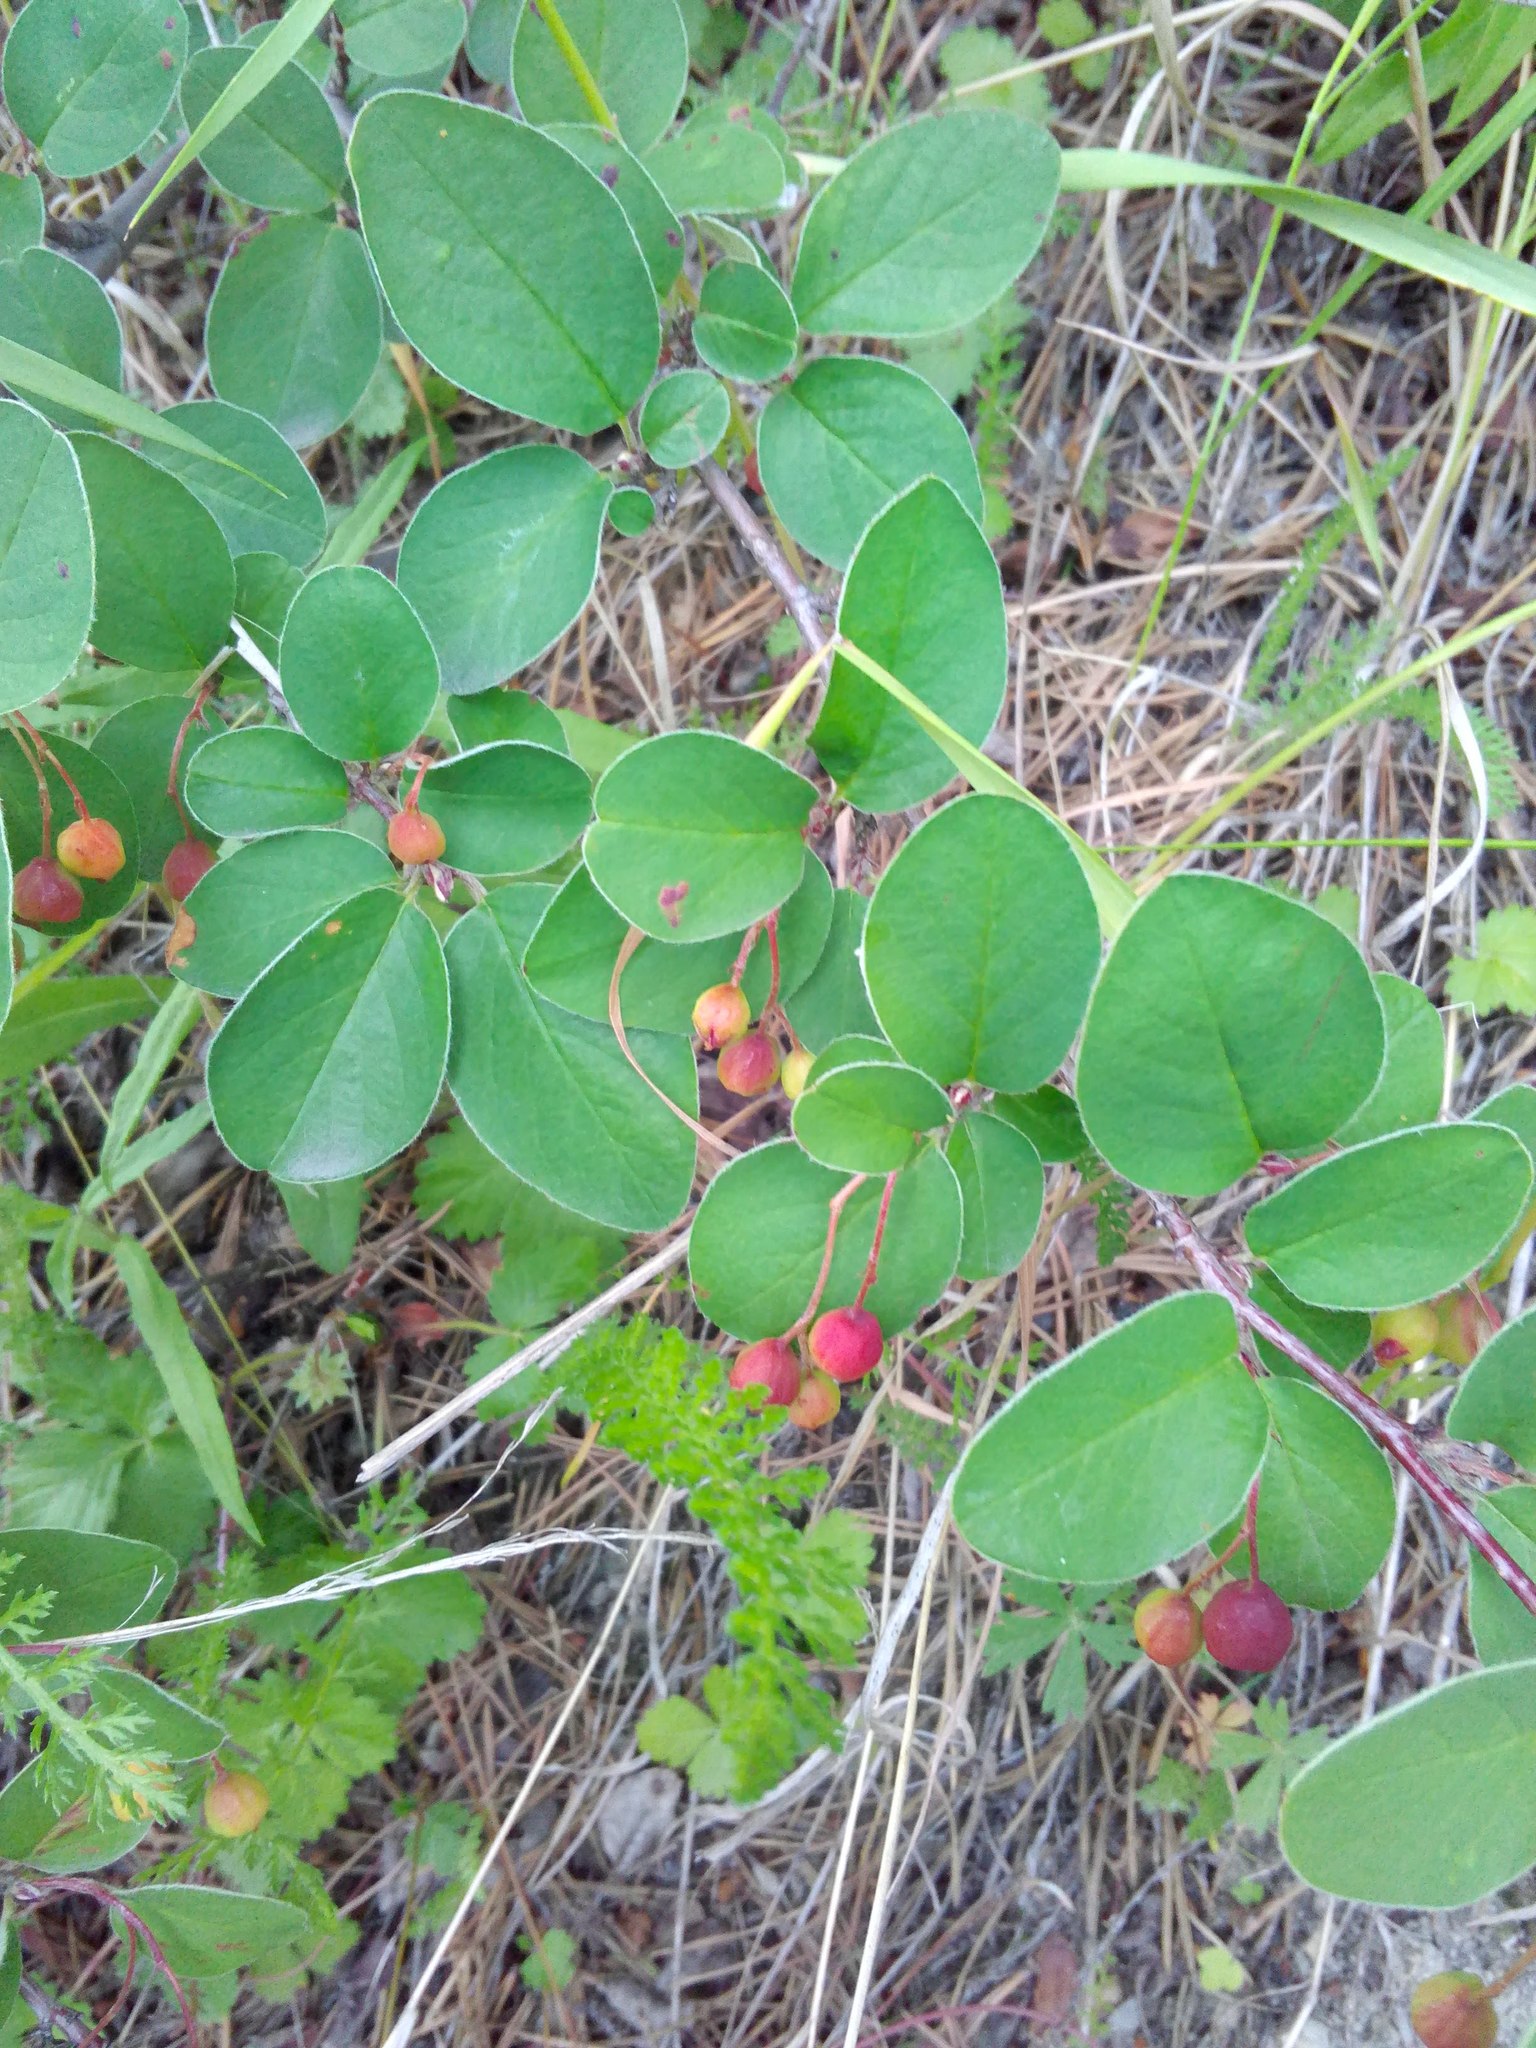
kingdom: Plantae
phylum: Tracheophyta
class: Magnoliopsida
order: Rosales
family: Rosaceae
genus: Cotoneaster
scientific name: Cotoneaster melanocarpus
